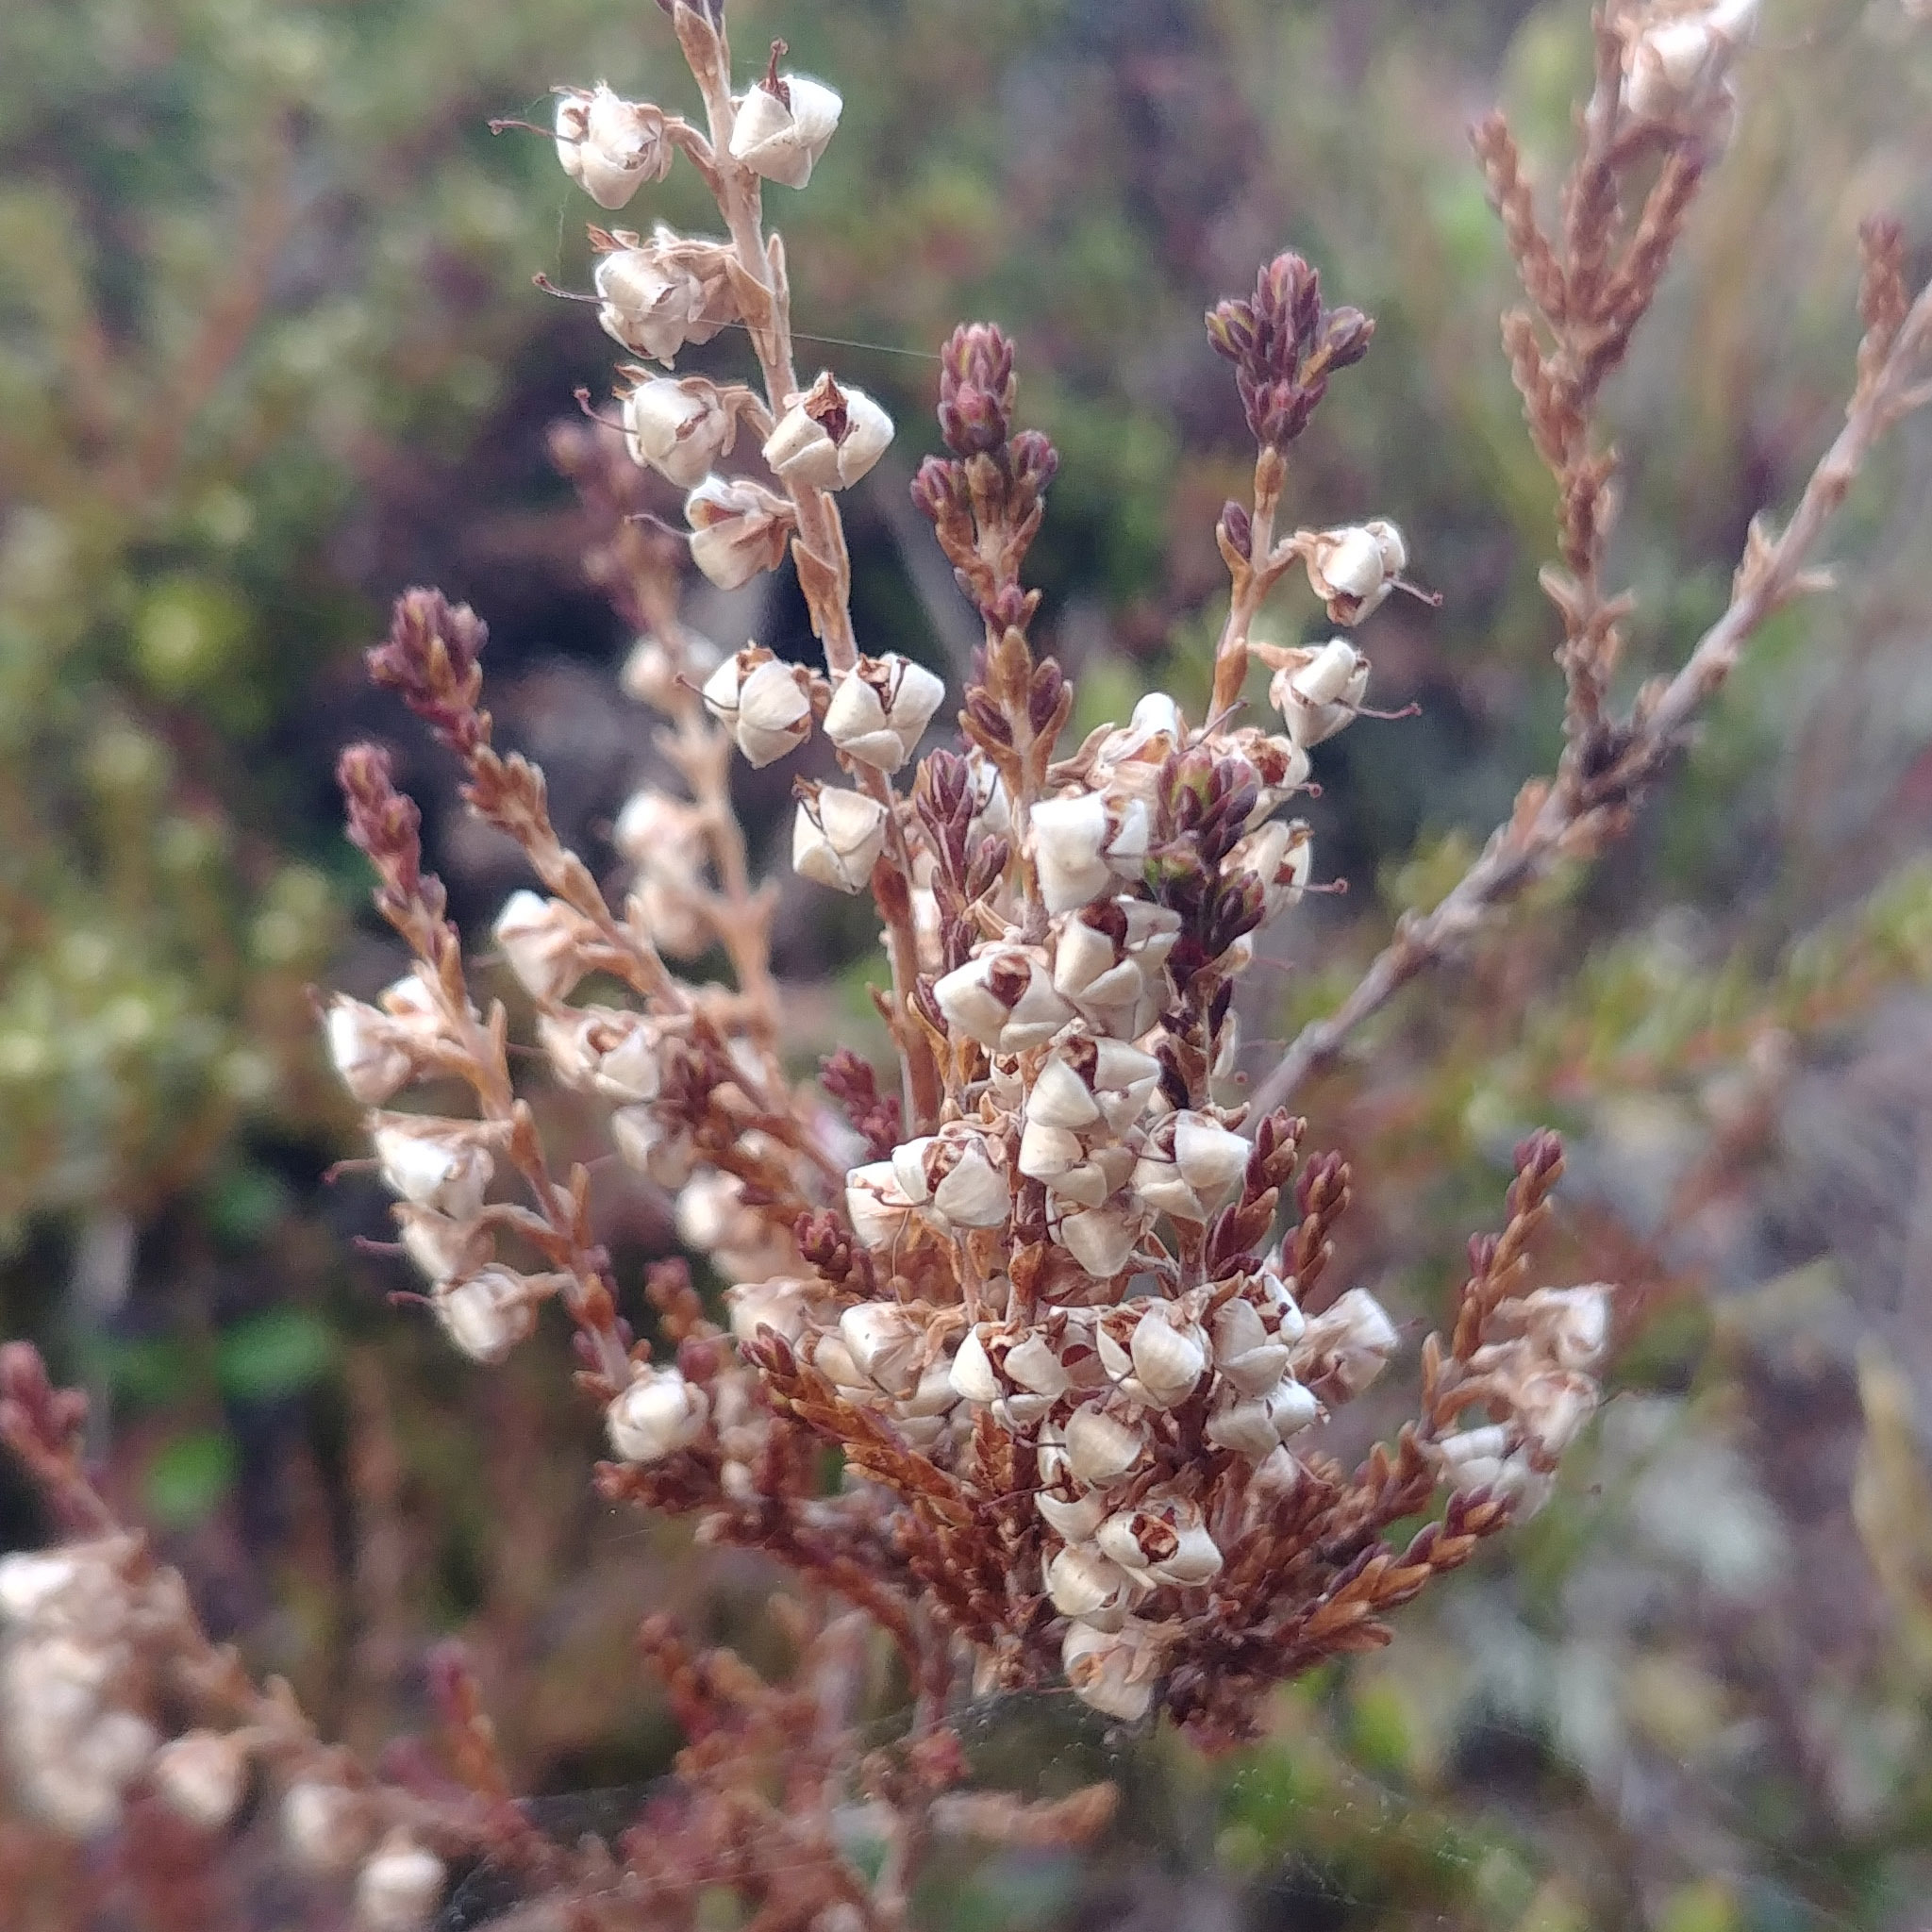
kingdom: Plantae
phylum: Tracheophyta
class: Magnoliopsida
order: Ericales
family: Ericaceae
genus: Calluna
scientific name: Calluna vulgaris
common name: Heather
